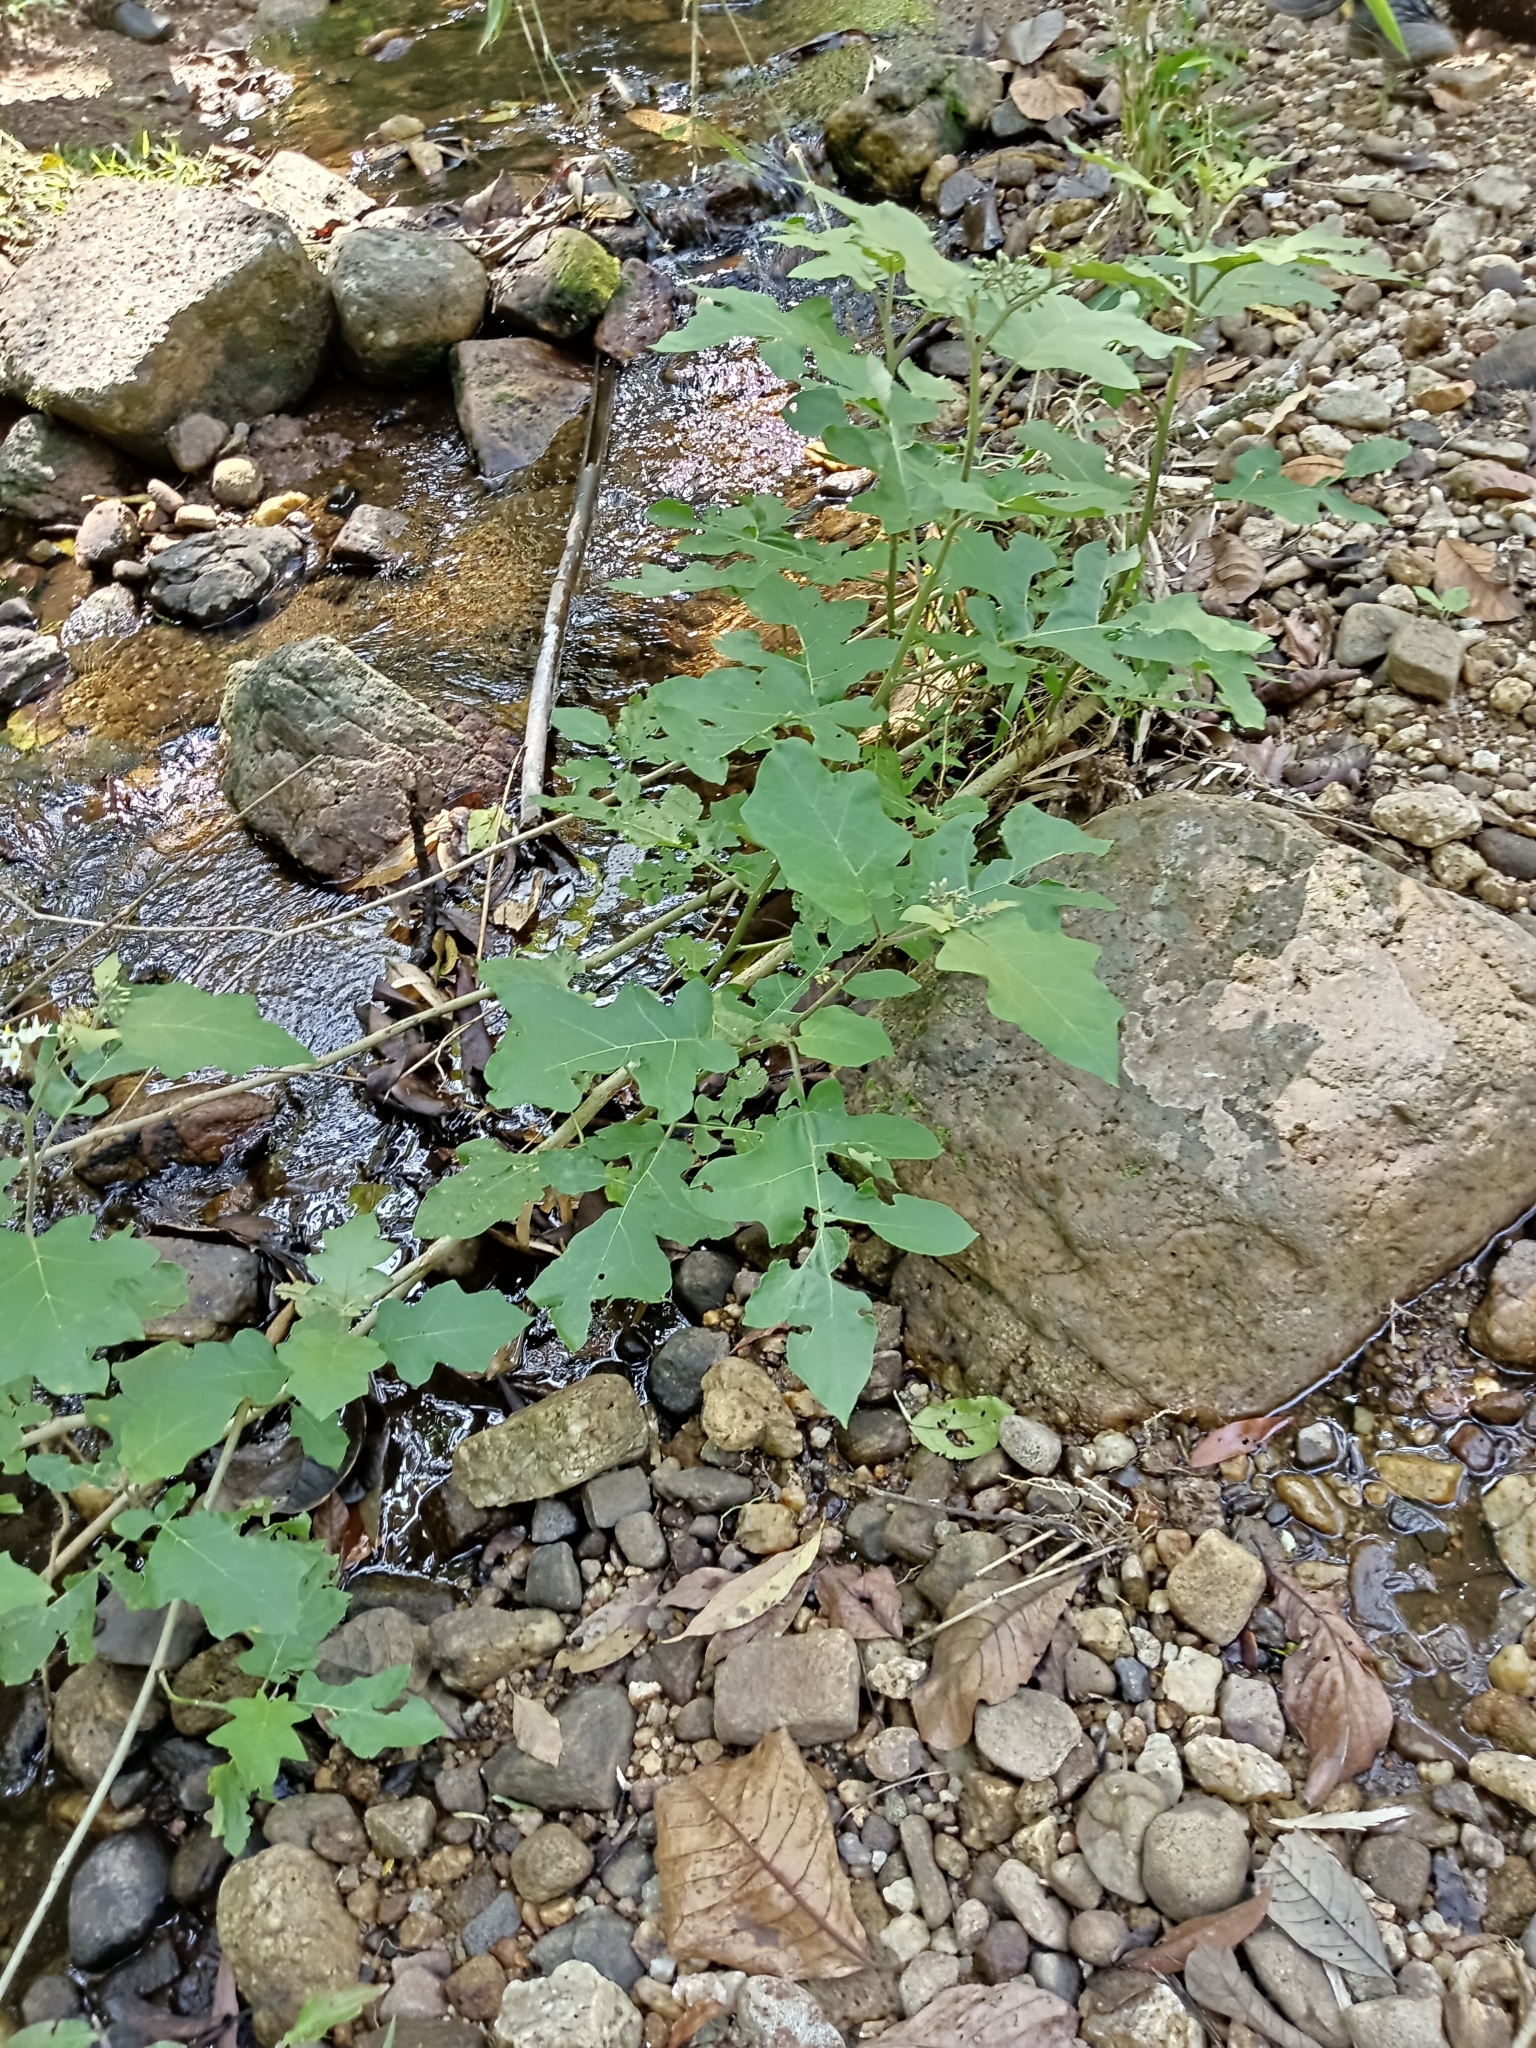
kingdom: Plantae
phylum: Tracheophyta
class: Magnoliopsida
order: Solanales
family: Solanaceae
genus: Solanum
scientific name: Solanum torvum
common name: Turkey berry
